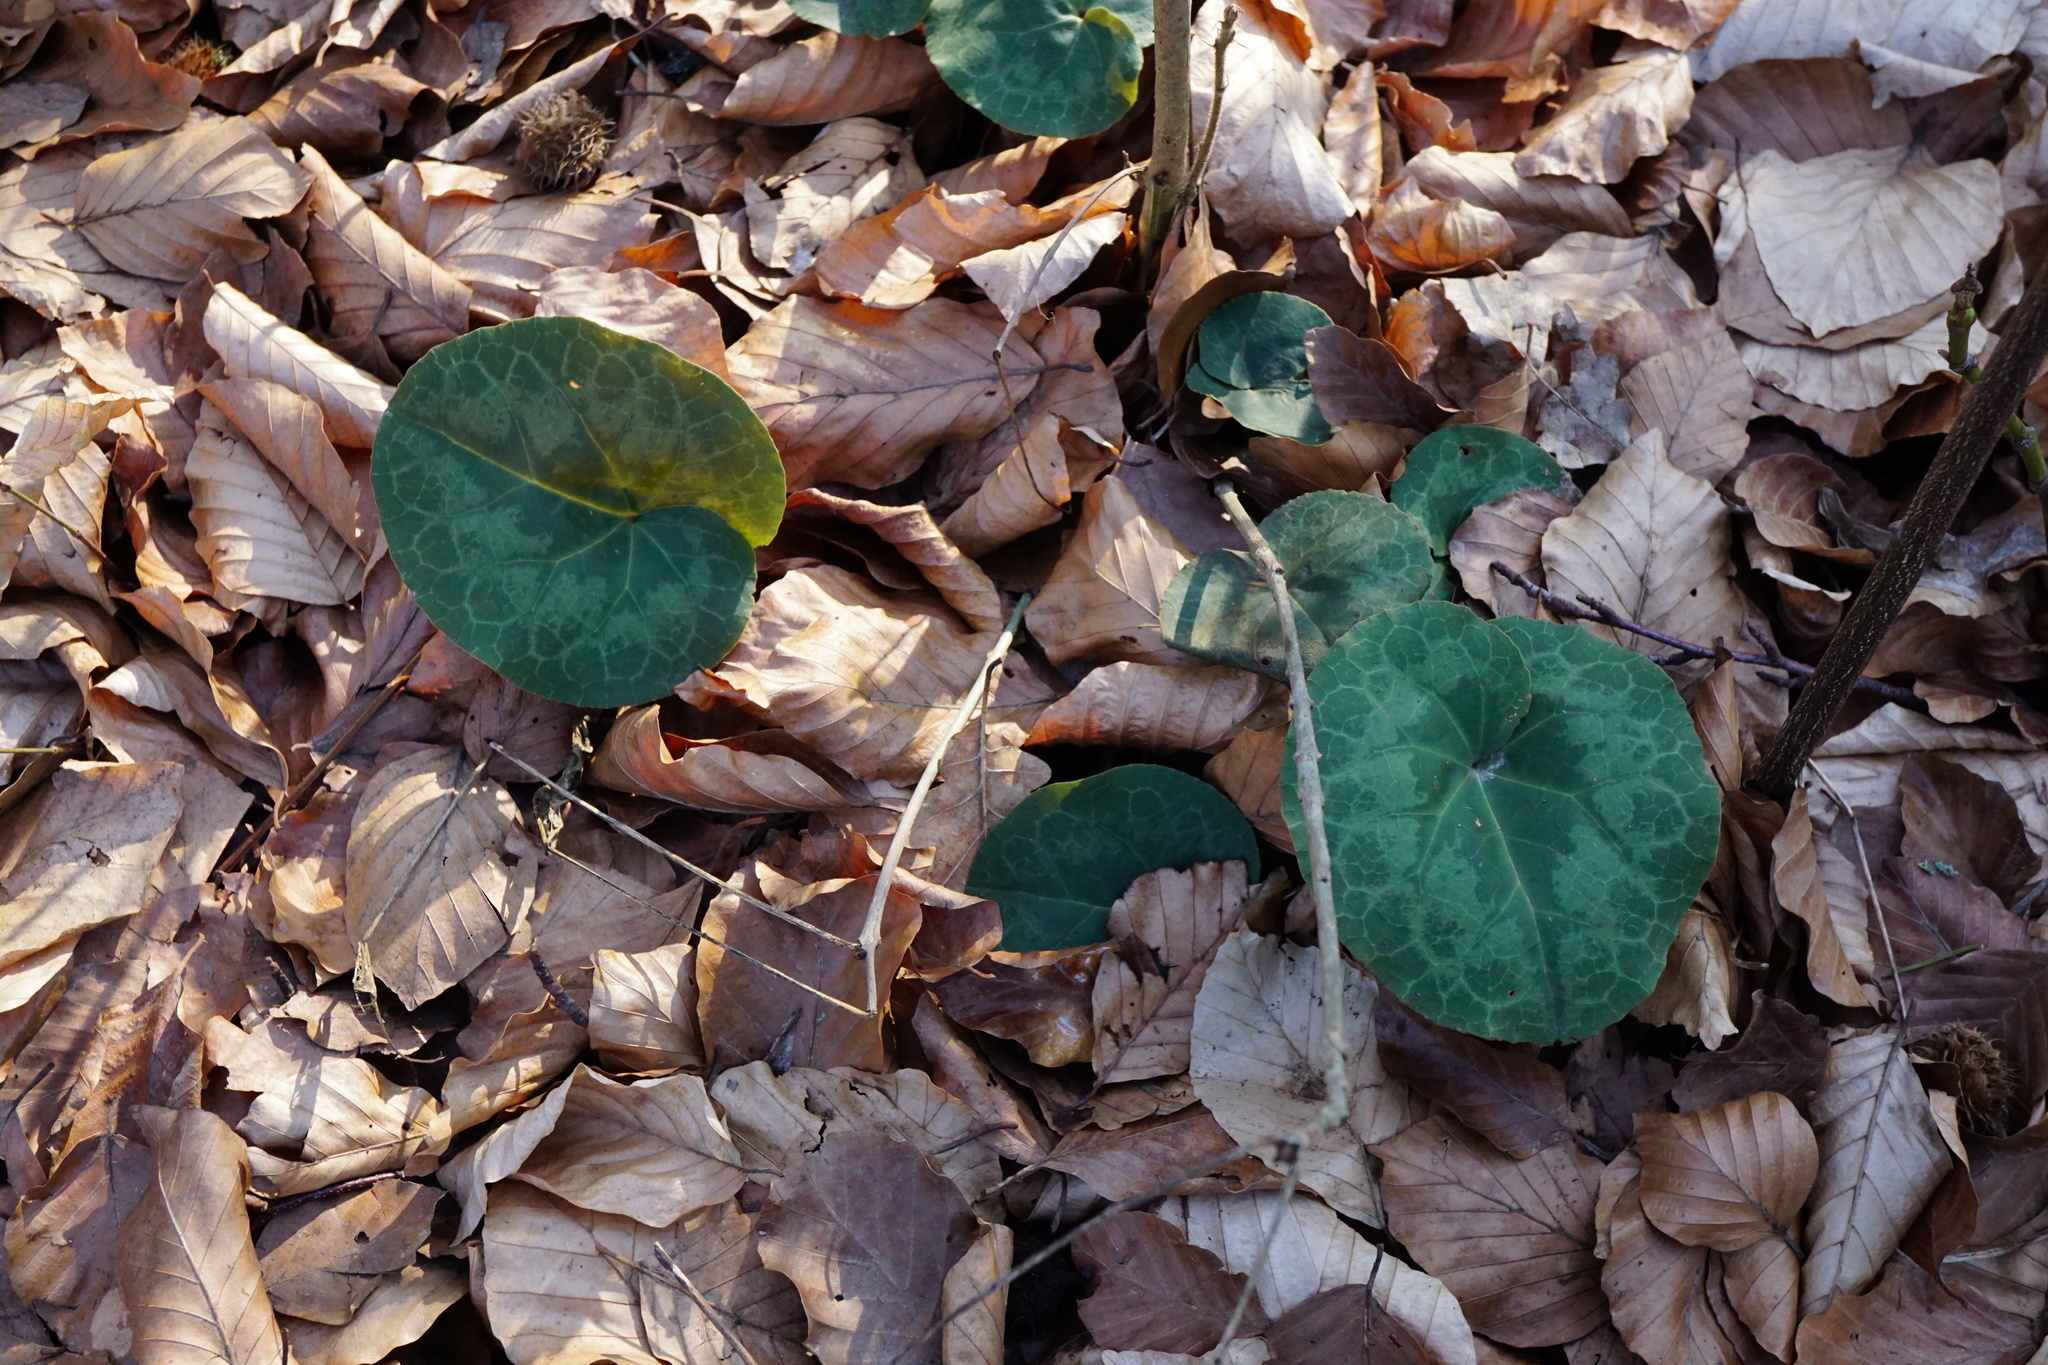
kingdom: Plantae
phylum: Tracheophyta
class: Magnoliopsida
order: Ericales
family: Primulaceae
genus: Cyclamen
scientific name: Cyclamen purpurascens
